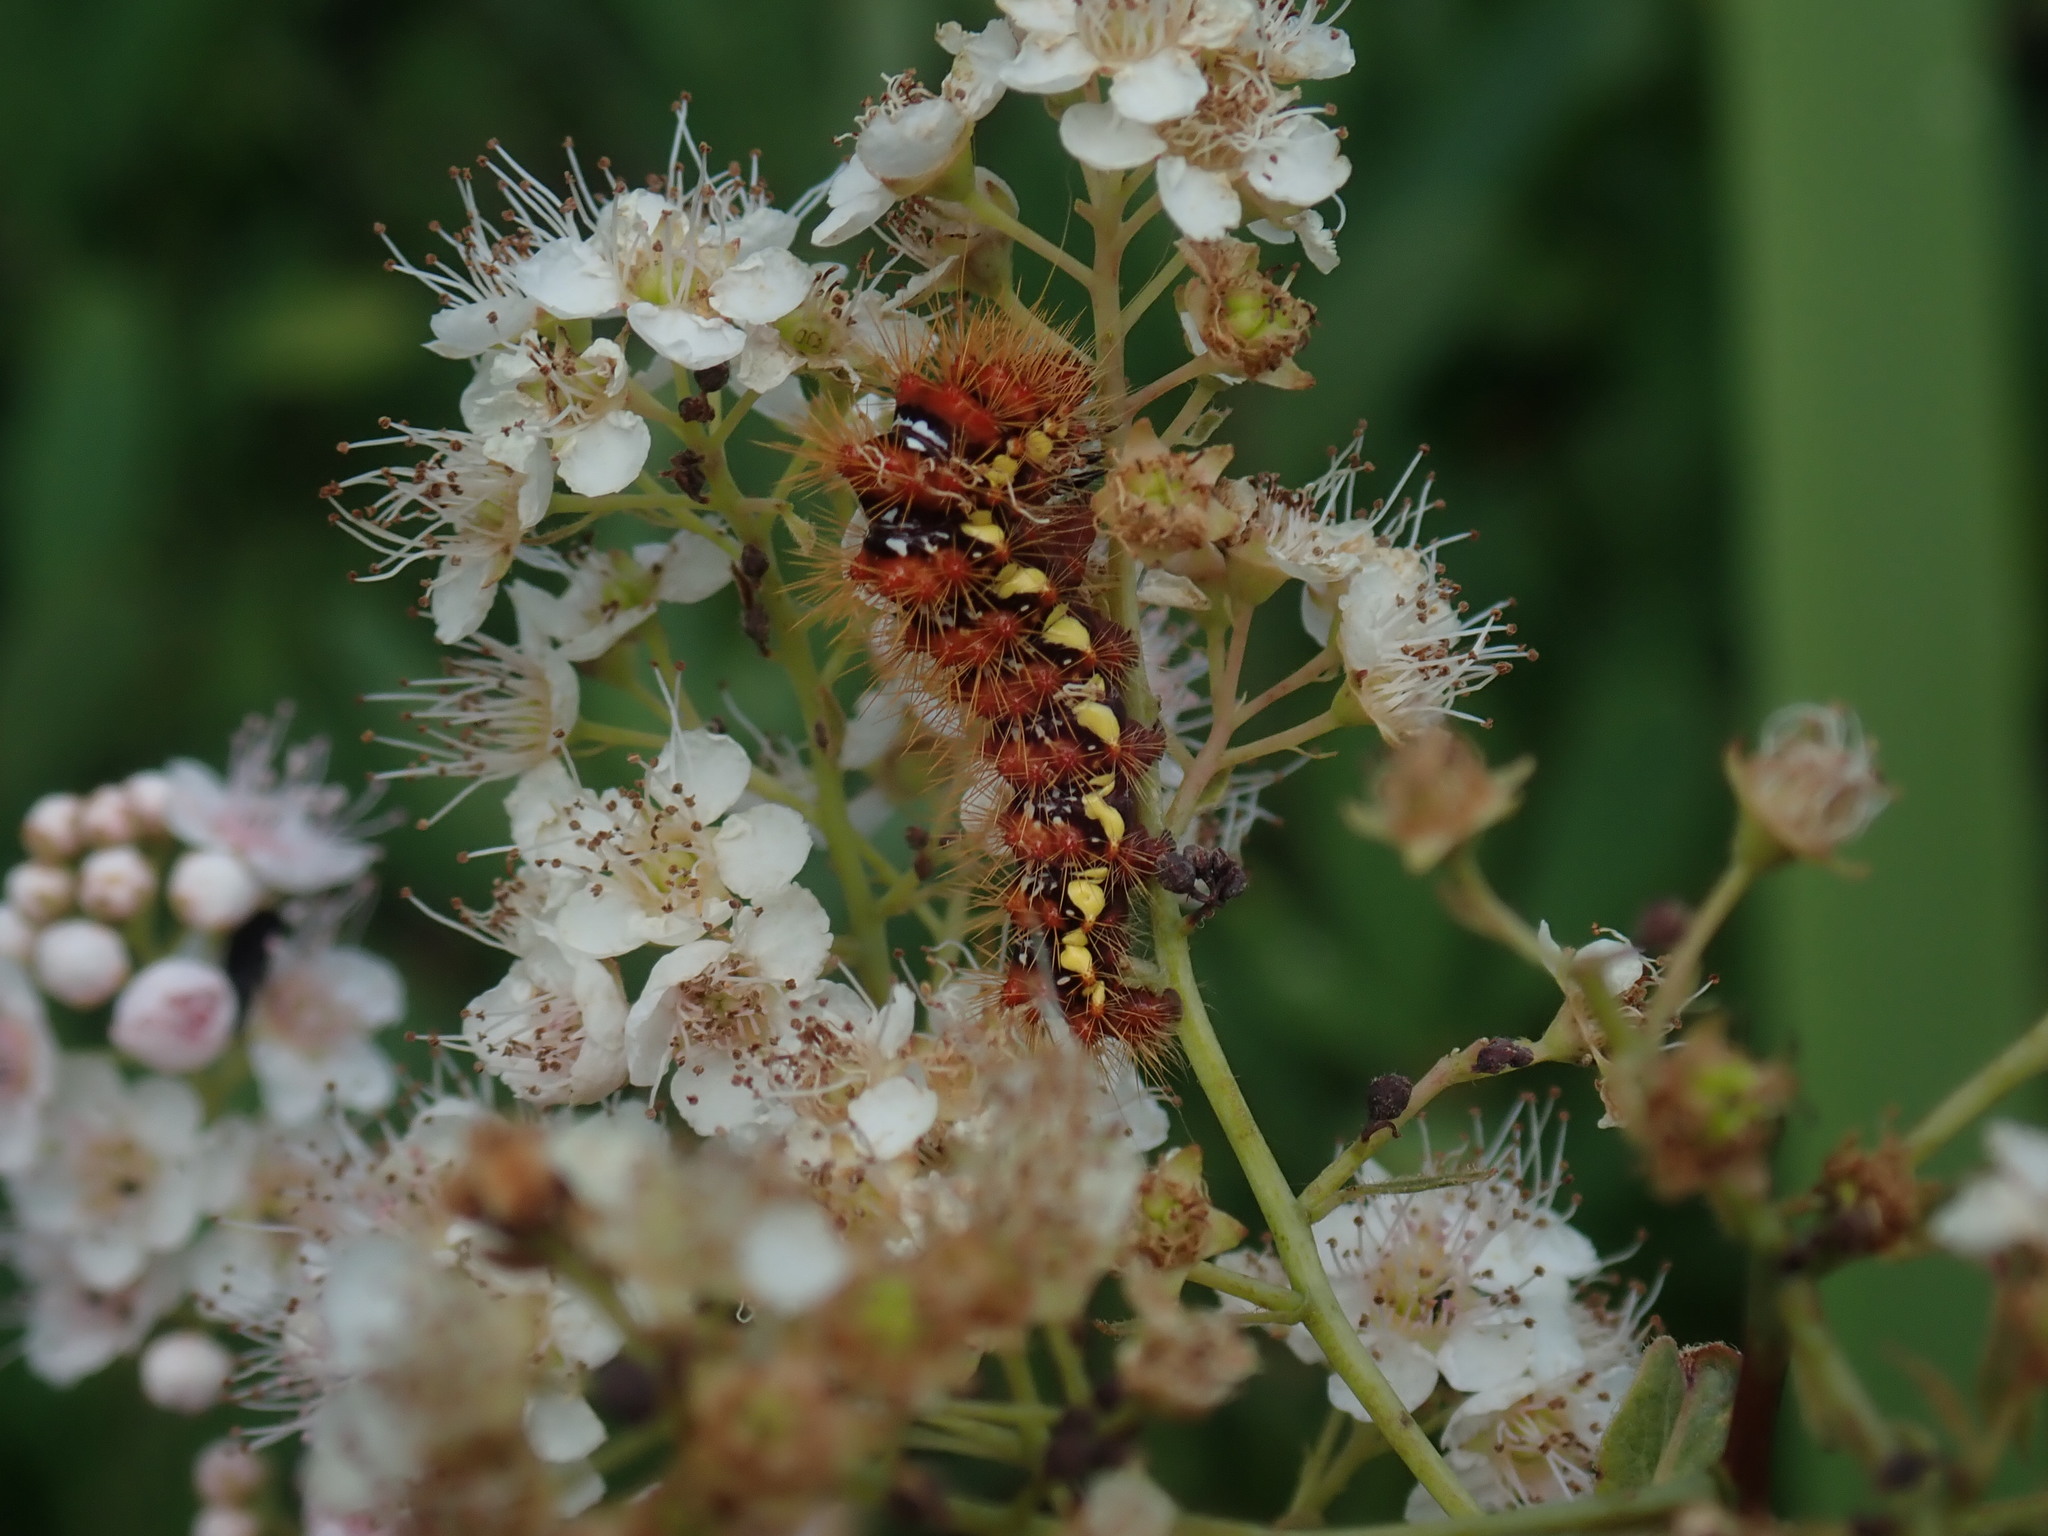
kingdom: Animalia
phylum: Arthropoda
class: Insecta
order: Lepidoptera
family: Noctuidae
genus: Acronicta
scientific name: Acronicta oblinita
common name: Smeared dagger
